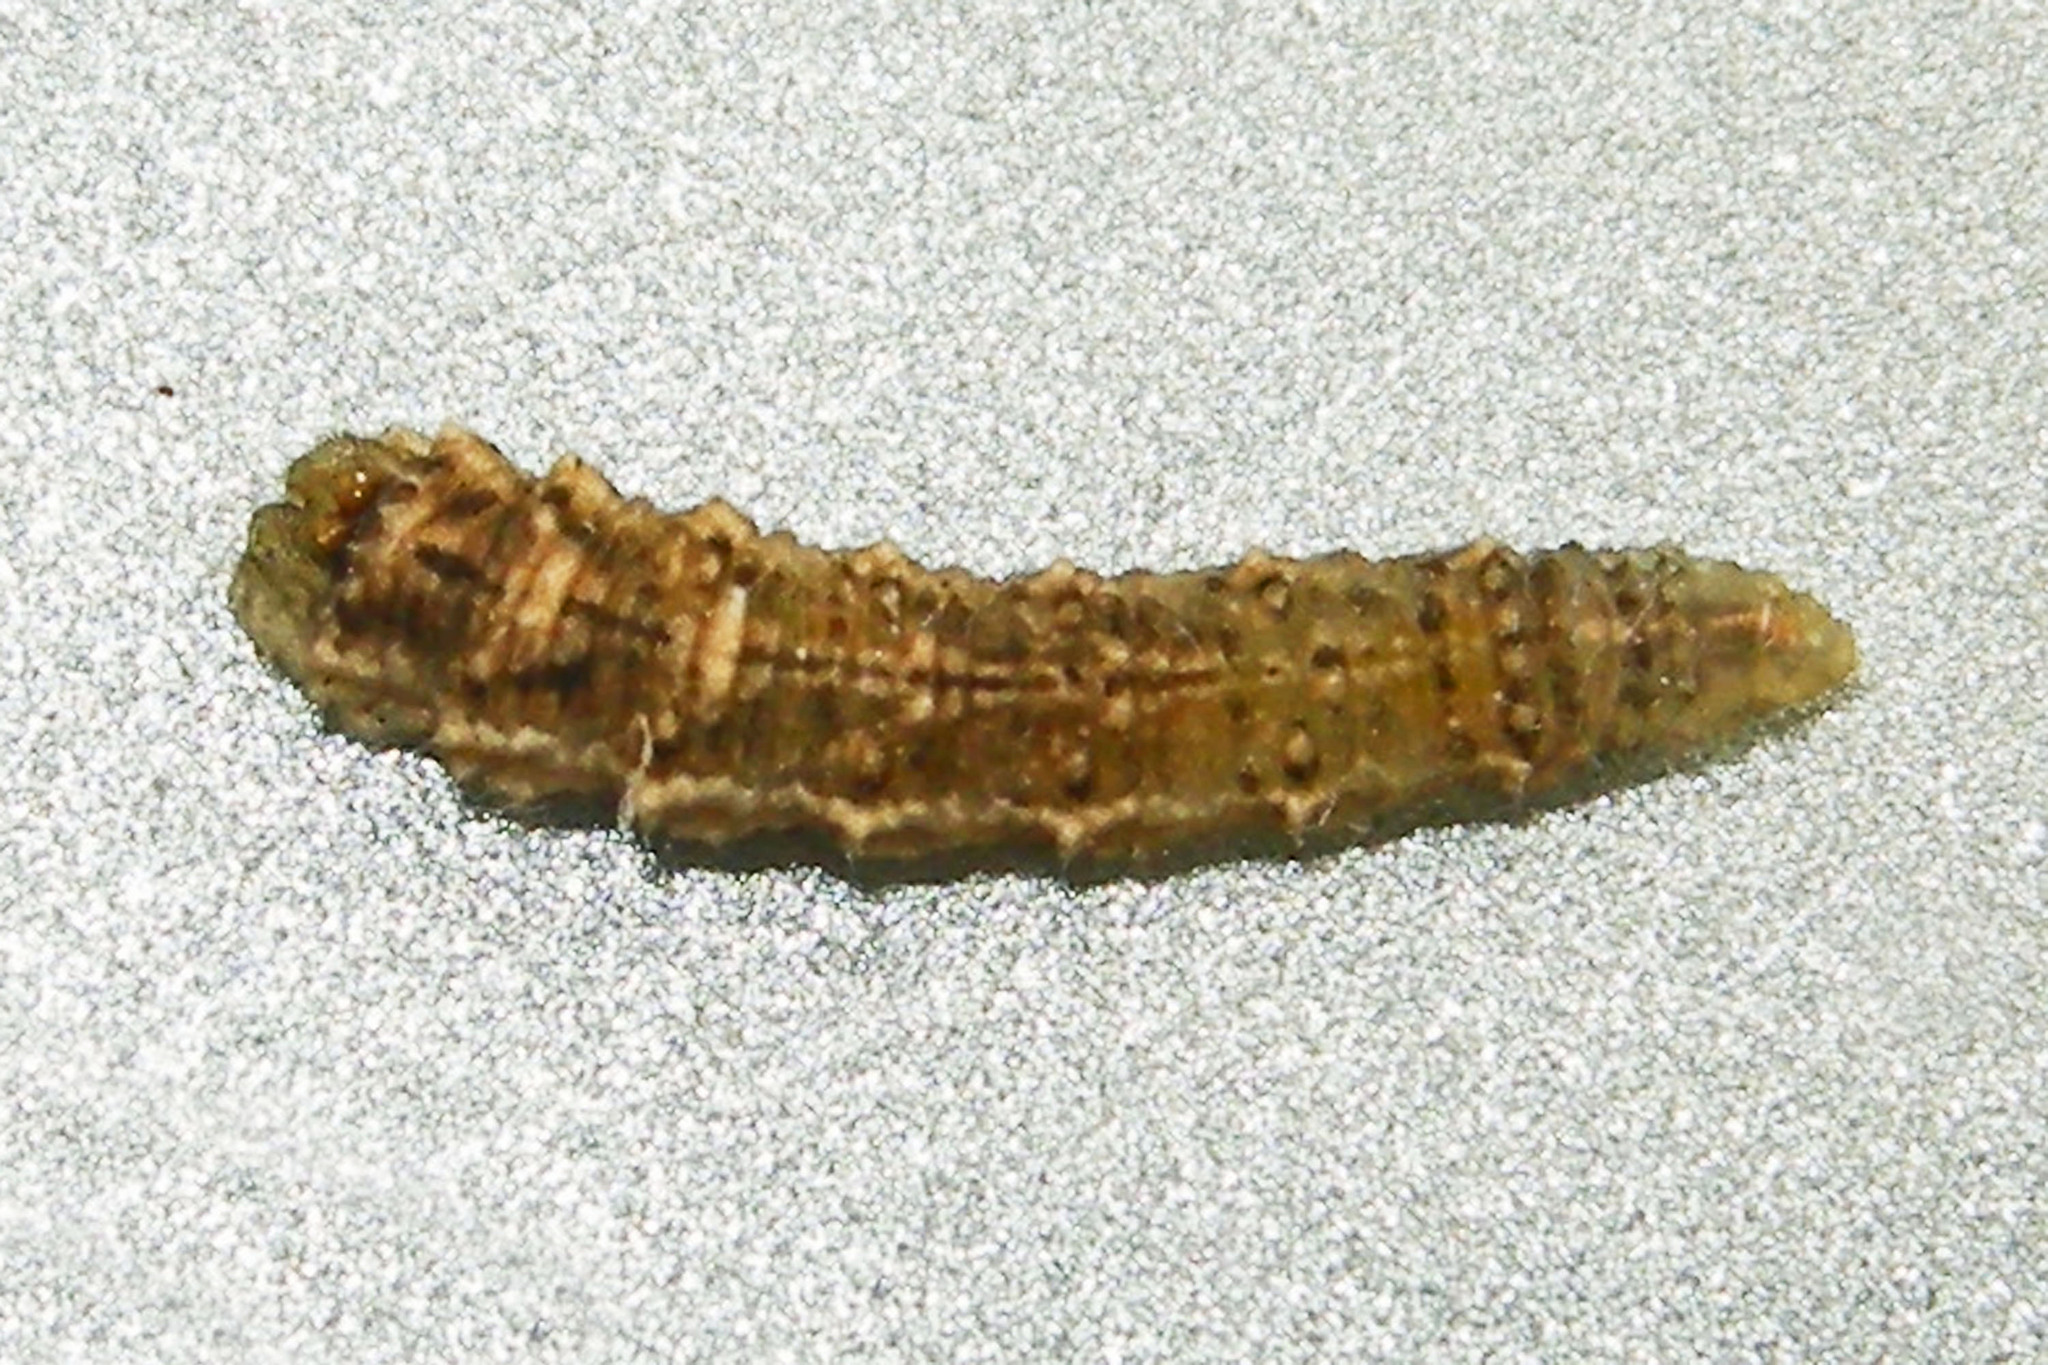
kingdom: Animalia
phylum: Arthropoda
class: Insecta
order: Diptera
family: Syrphidae
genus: Eupeodes
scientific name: Eupeodes americanus
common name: Long-tailed aphideater
